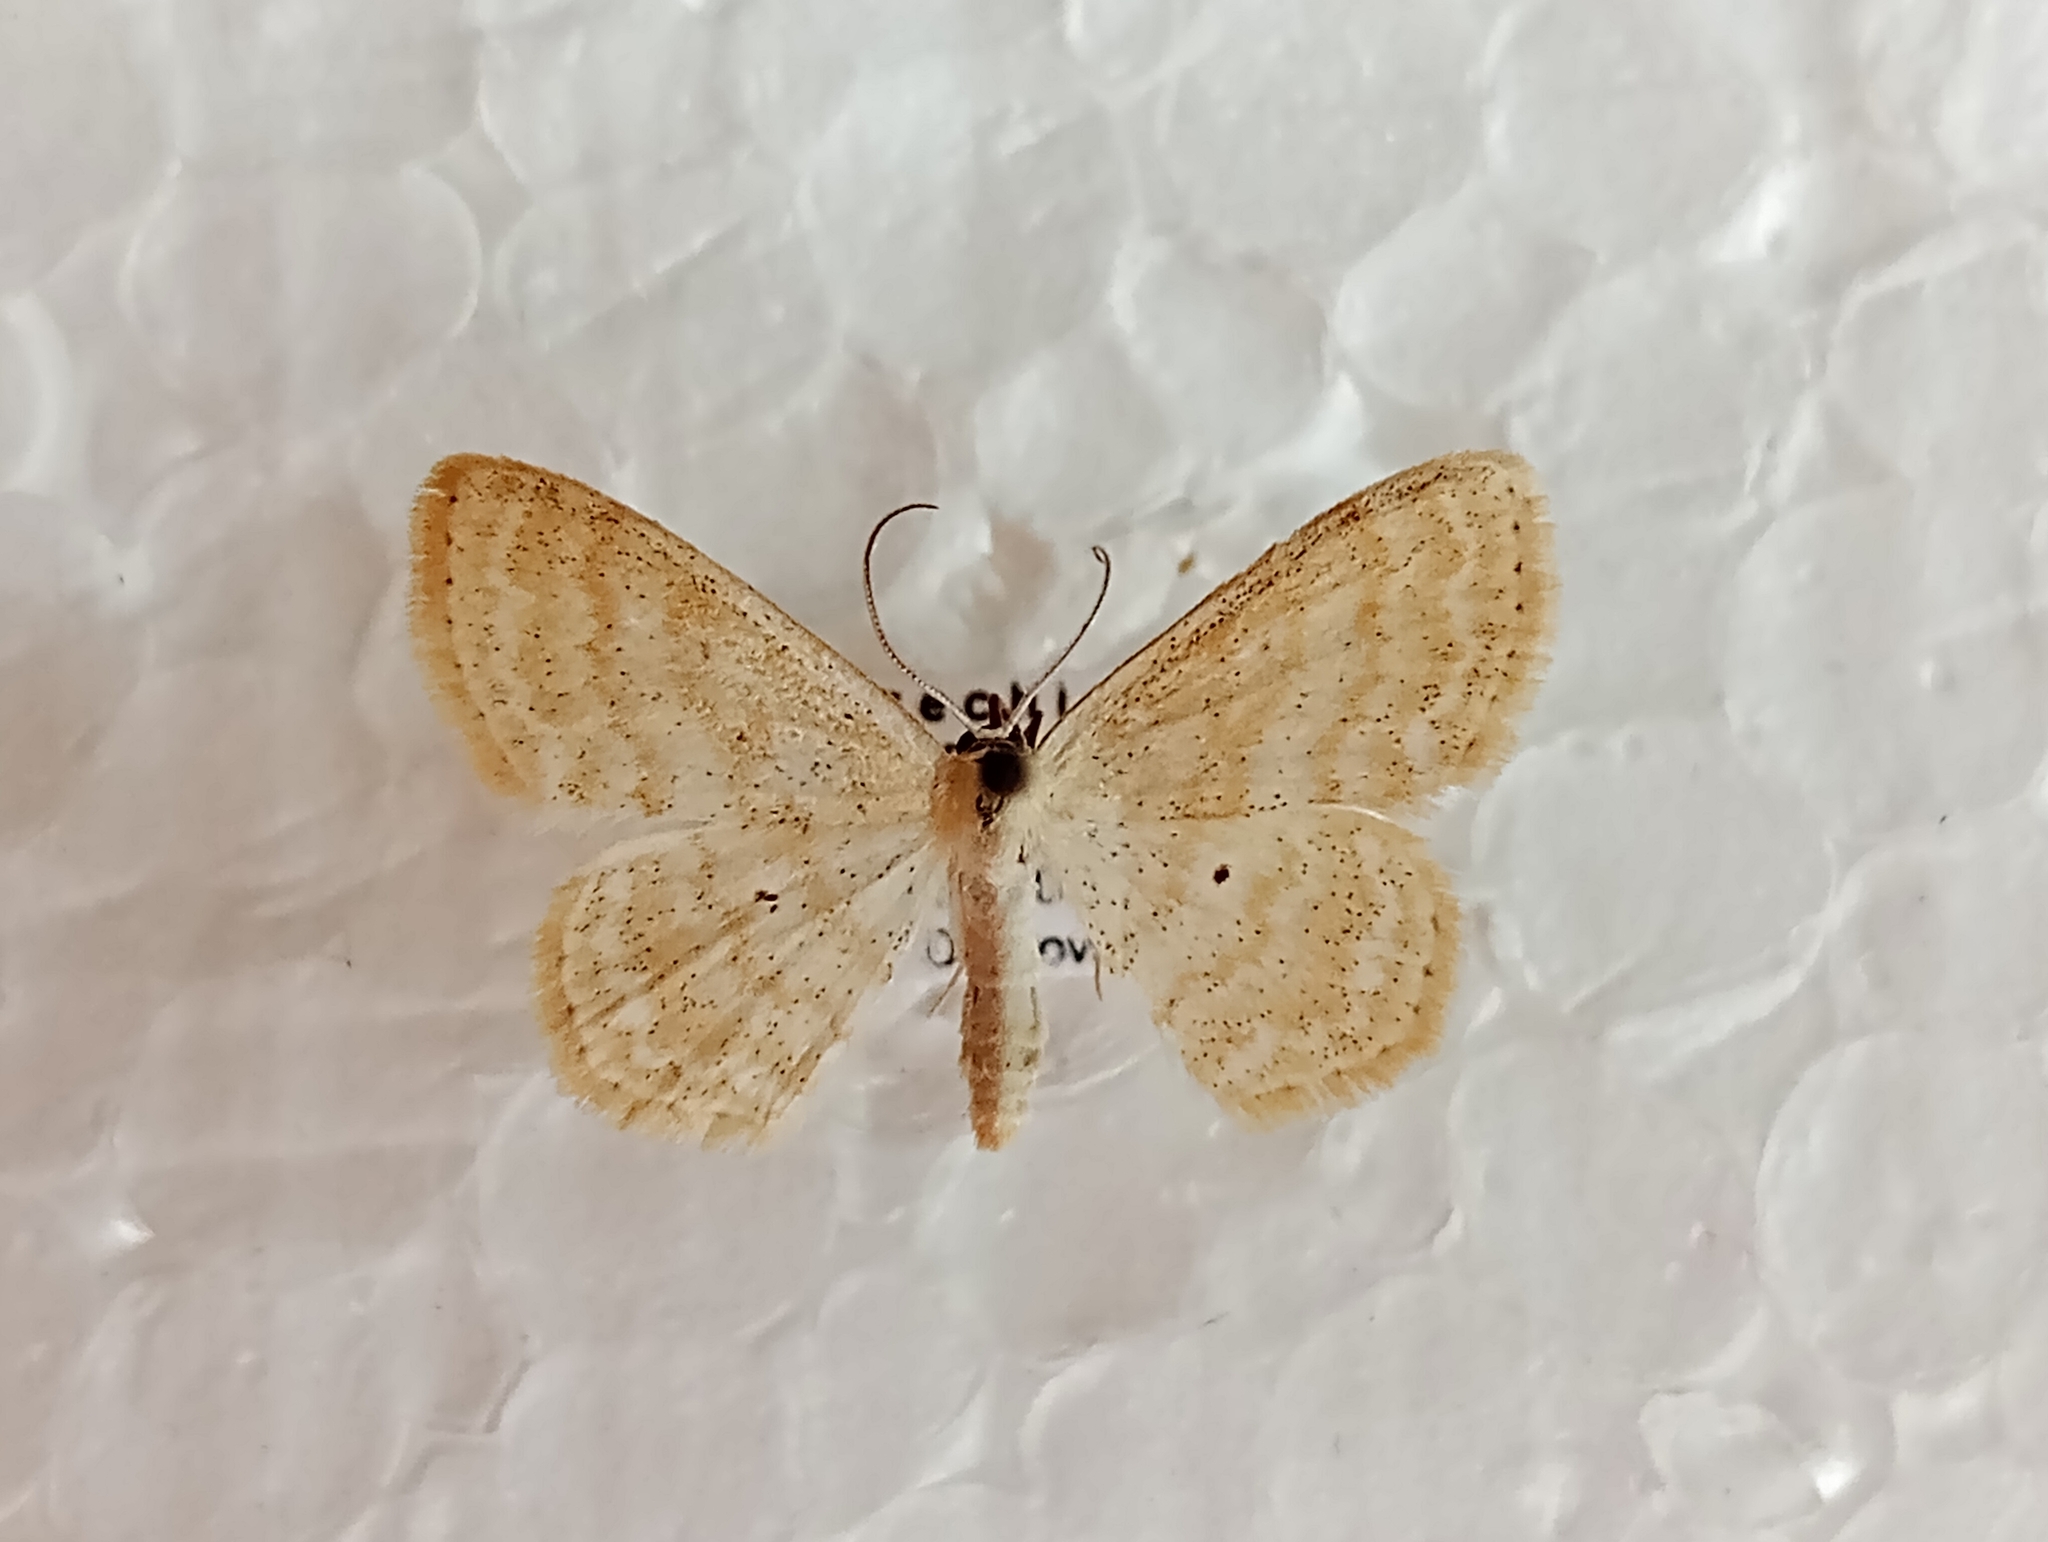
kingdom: Animalia
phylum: Arthropoda
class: Insecta
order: Lepidoptera
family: Geometridae
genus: Scopula
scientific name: Scopula immutata
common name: Lesser cream wave
